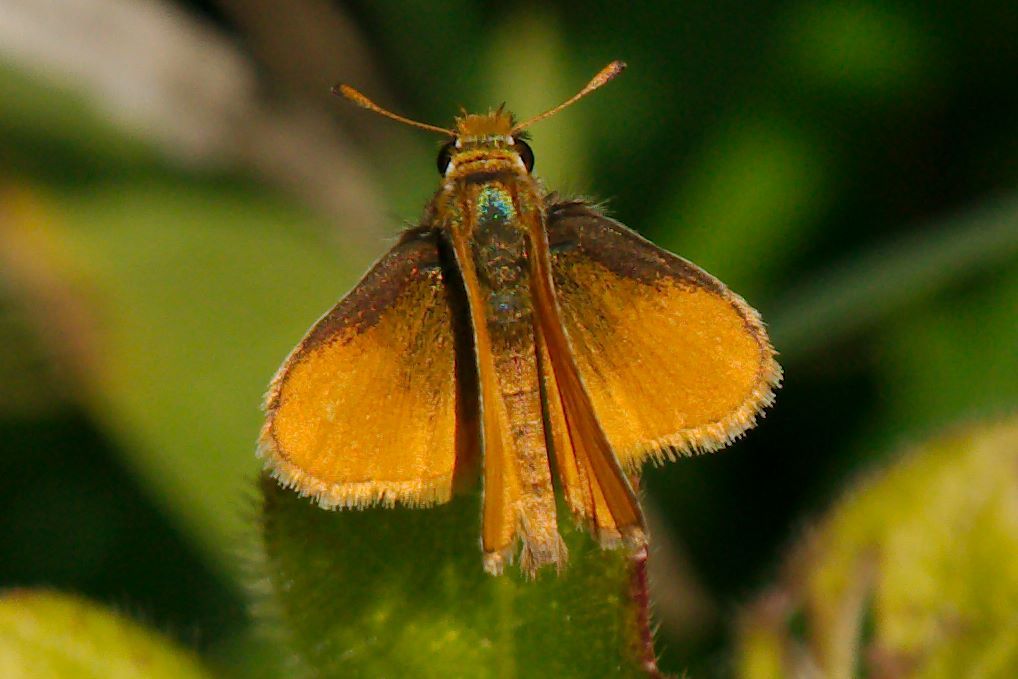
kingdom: Animalia
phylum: Arthropoda
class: Insecta
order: Lepidoptera
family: Hesperiidae
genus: Copaeodes
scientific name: Copaeodes minima
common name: Southern skipperling
